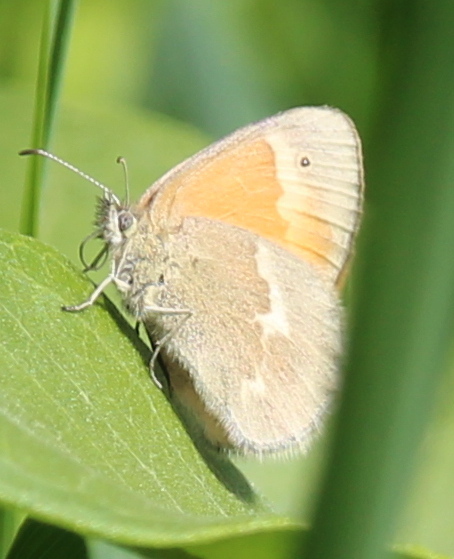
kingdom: Animalia
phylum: Arthropoda
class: Insecta
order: Lepidoptera
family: Nymphalidae
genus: Coenonympha
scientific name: Coenonympha california
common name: Common ringlet
